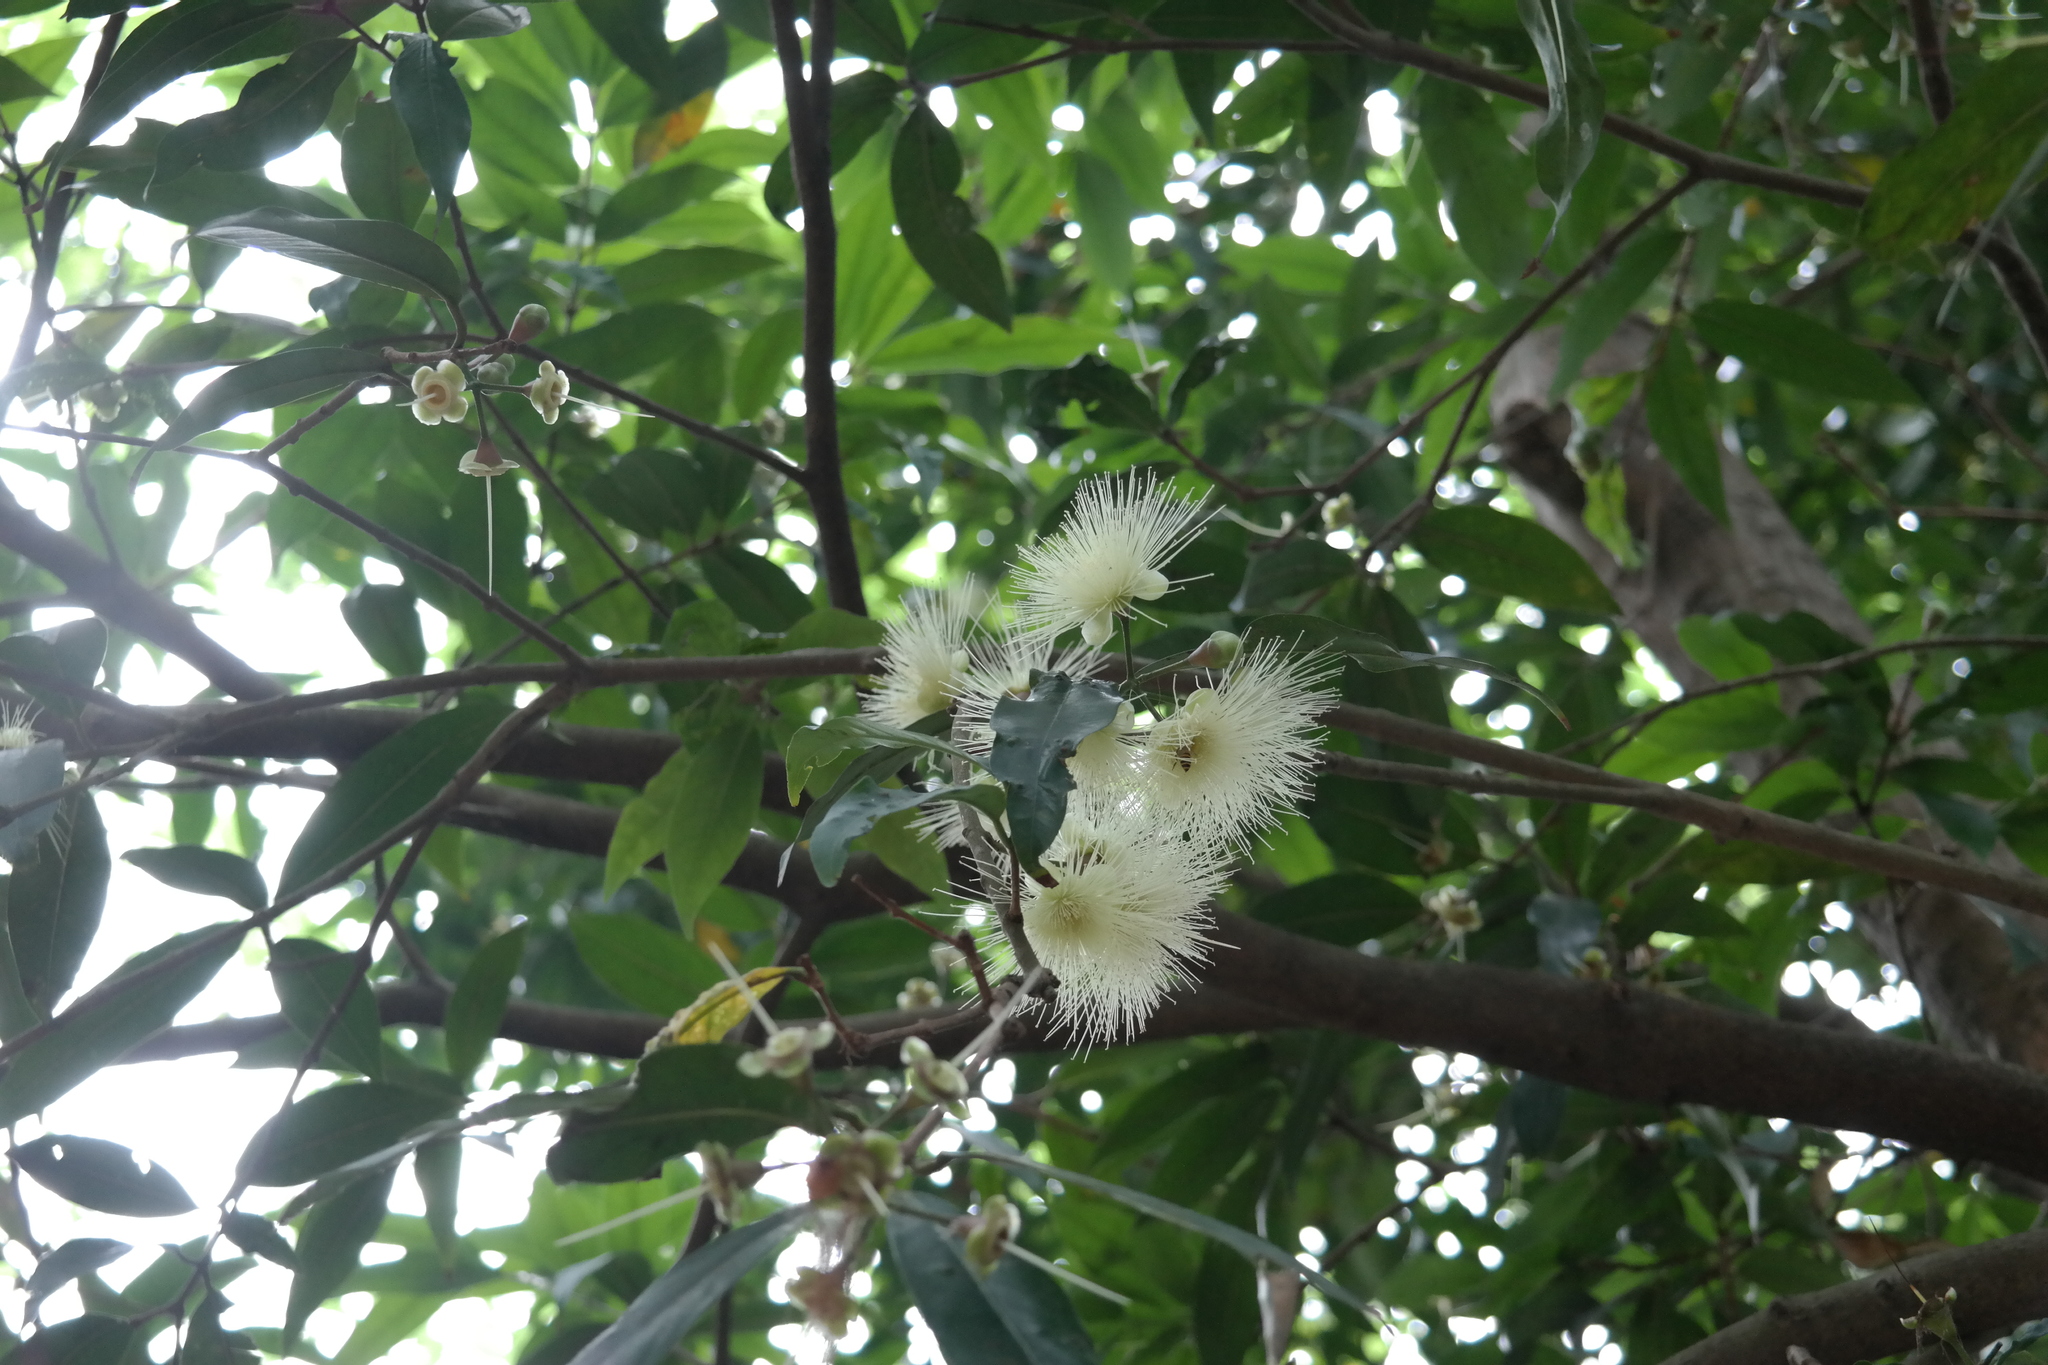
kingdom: Plantae
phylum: Tracheophyta
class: Magnoliopsida
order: Myrtales
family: Myrtaceae
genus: Syzygium
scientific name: Syzygium jambos
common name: Malabar plum
